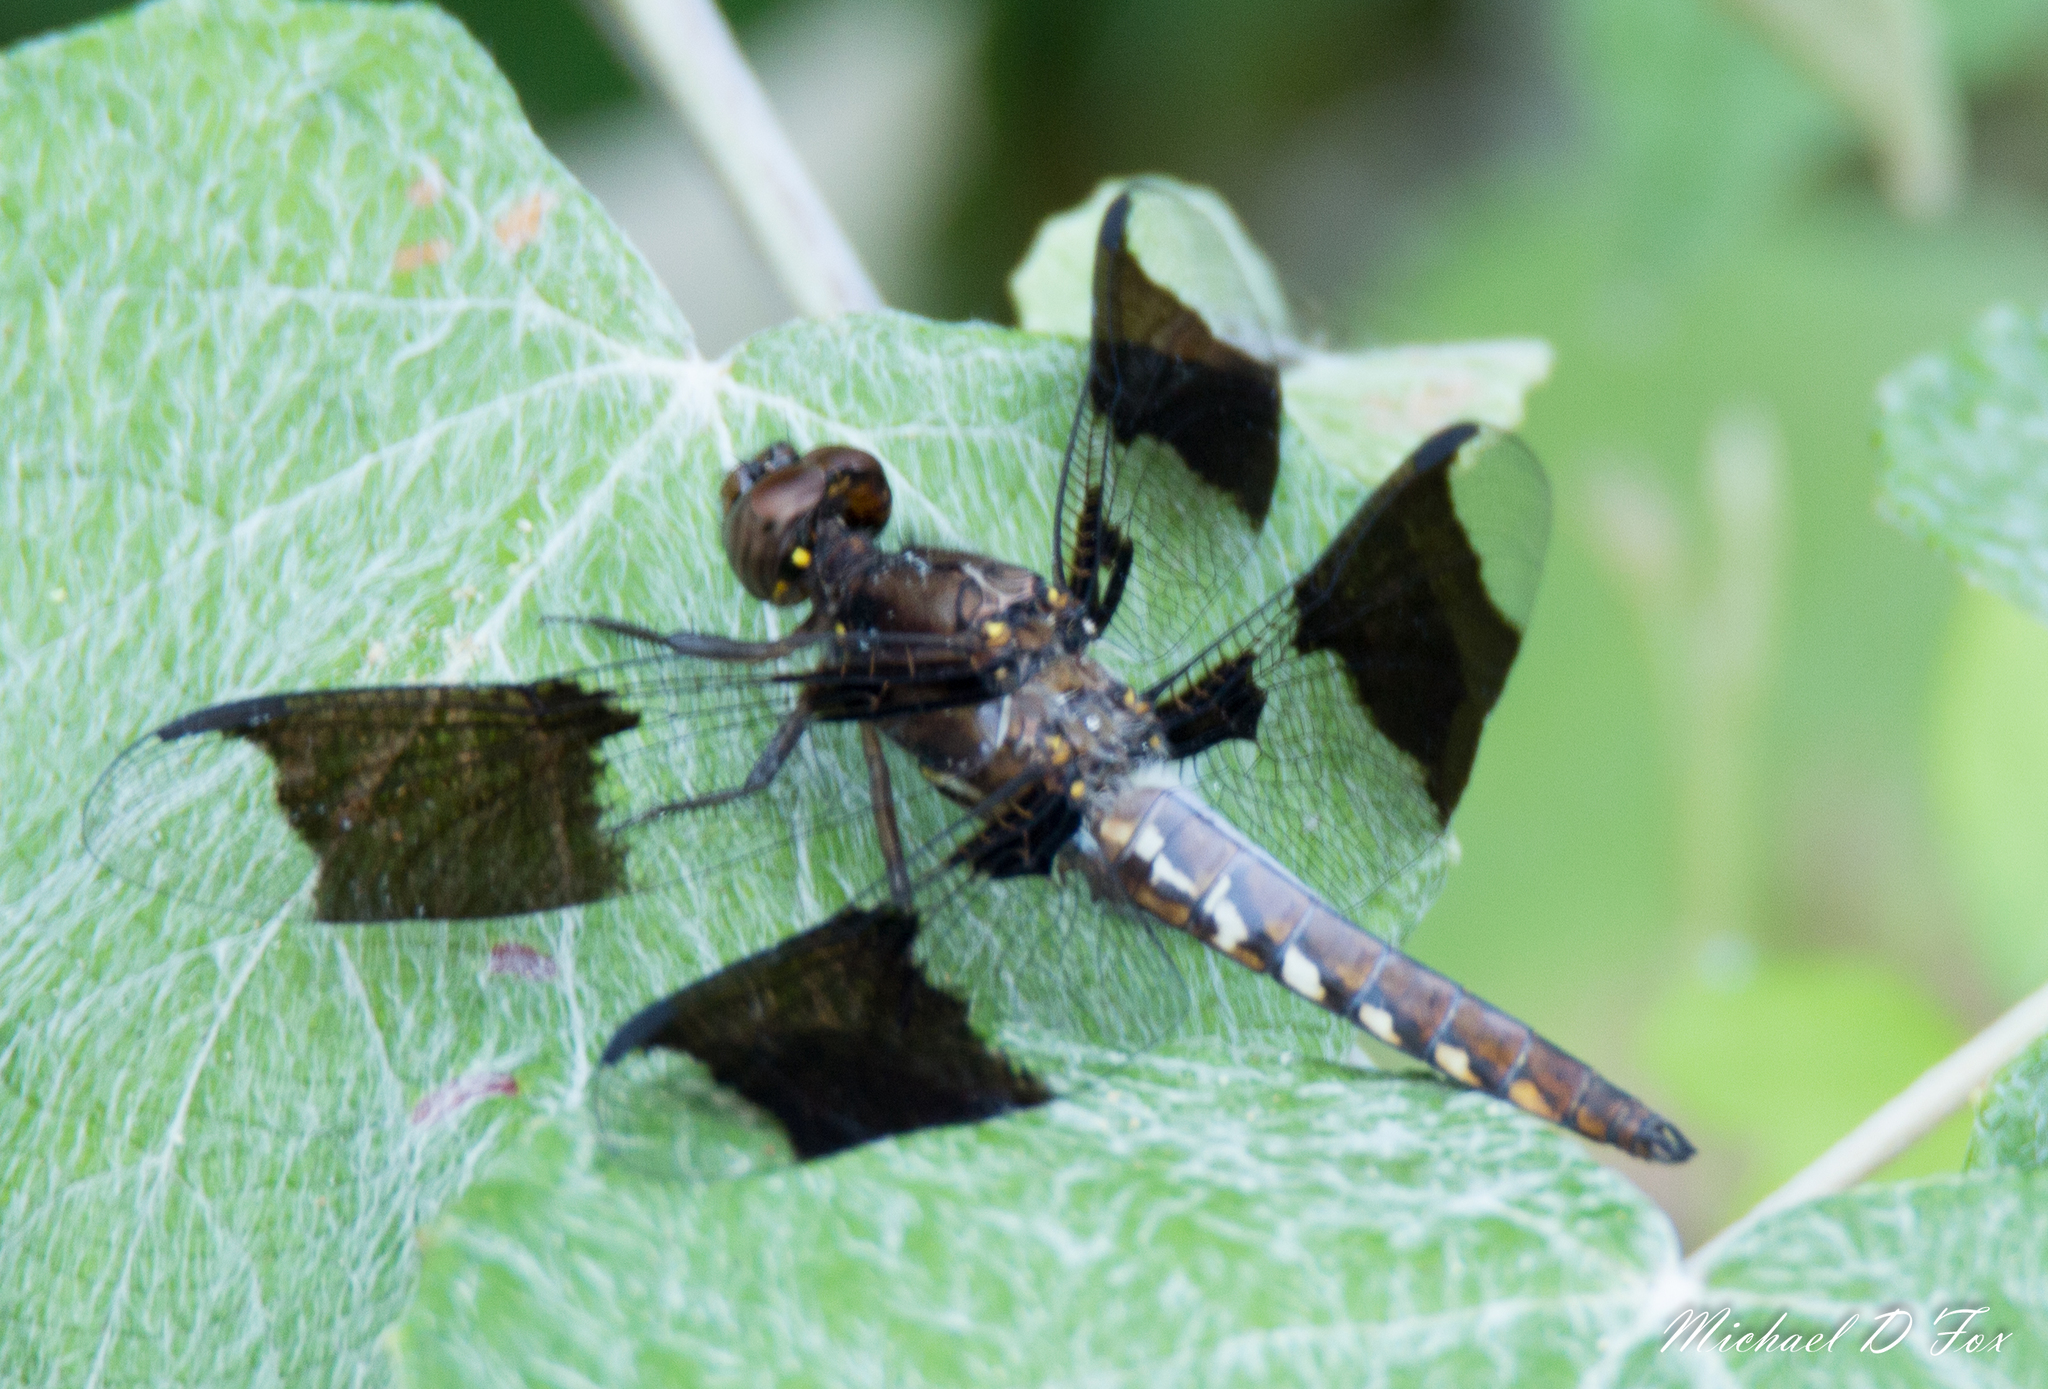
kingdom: Animalia
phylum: Arthropoda
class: Insecta
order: Odonata
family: Libellulidae
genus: Plathemis
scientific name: Plathemis lydia
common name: Common whitetail
